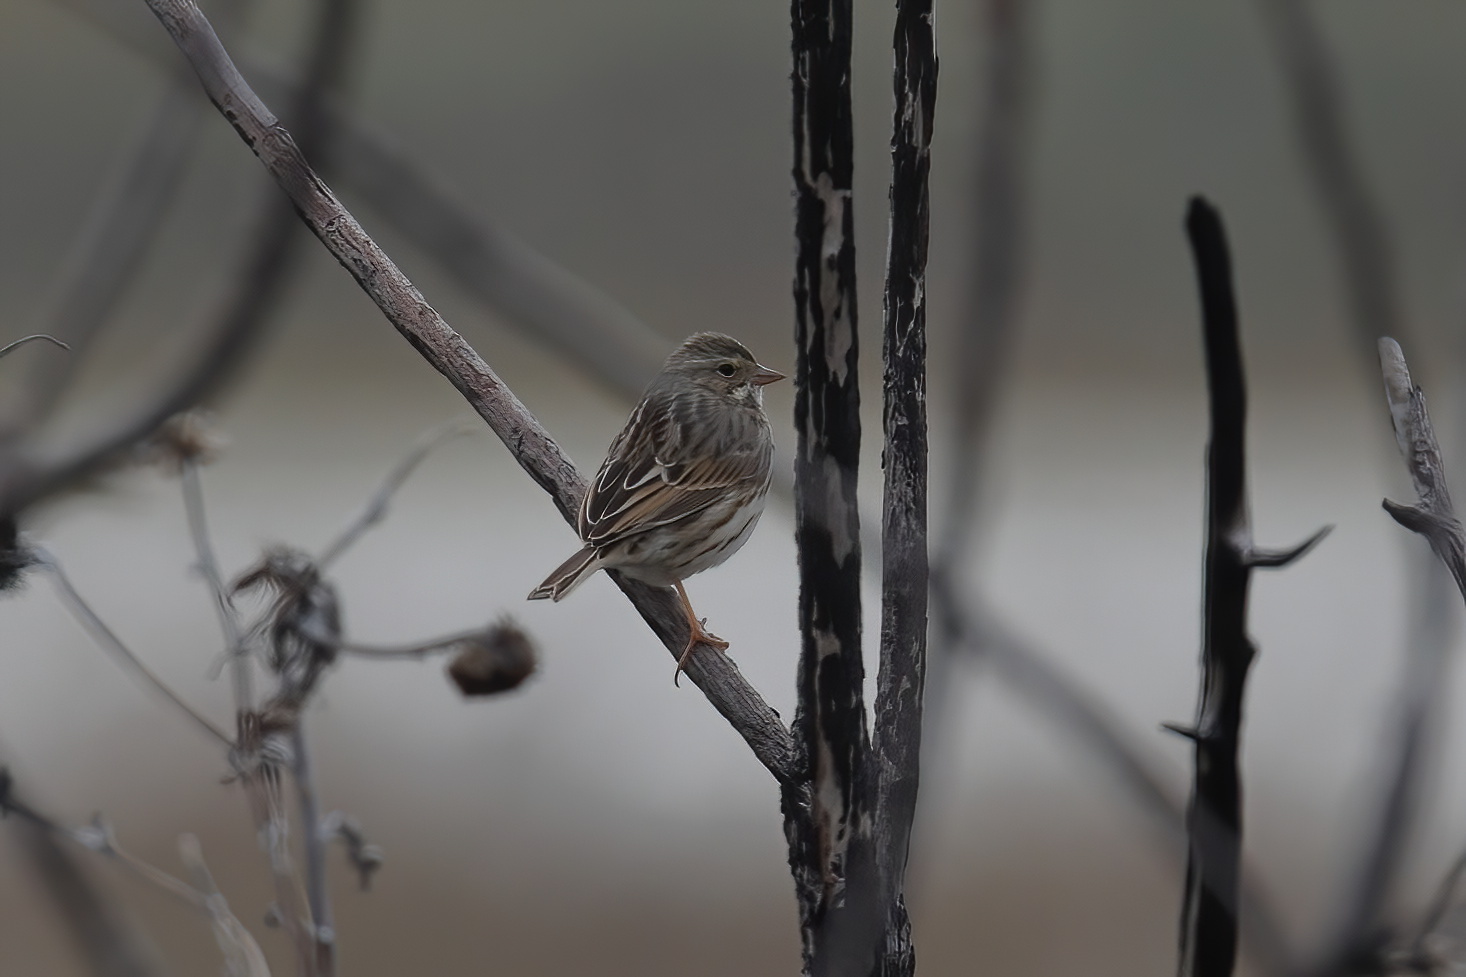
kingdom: Animalia
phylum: Chordata
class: Aves
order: Passeriformes
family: Passerellidae
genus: Passerculus
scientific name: Passerculus sandwichensis
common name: Savannah sparrow
